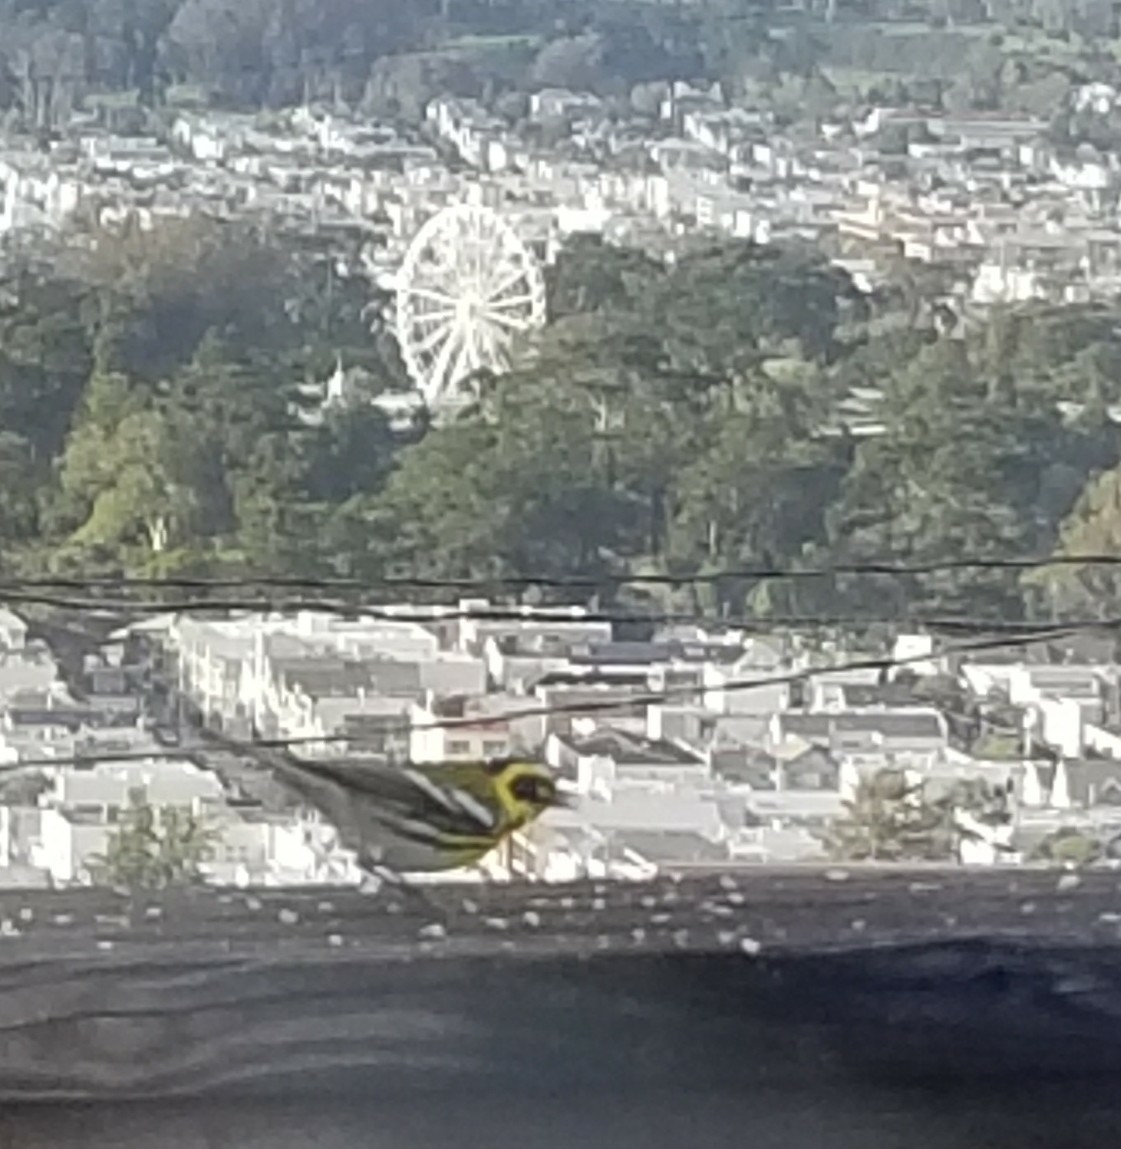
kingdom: Animalia
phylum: Chordata
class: Aves
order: Passeriformes
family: Parulidae
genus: Setophaga
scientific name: Setophaga townsendi
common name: Townsend's warbler
